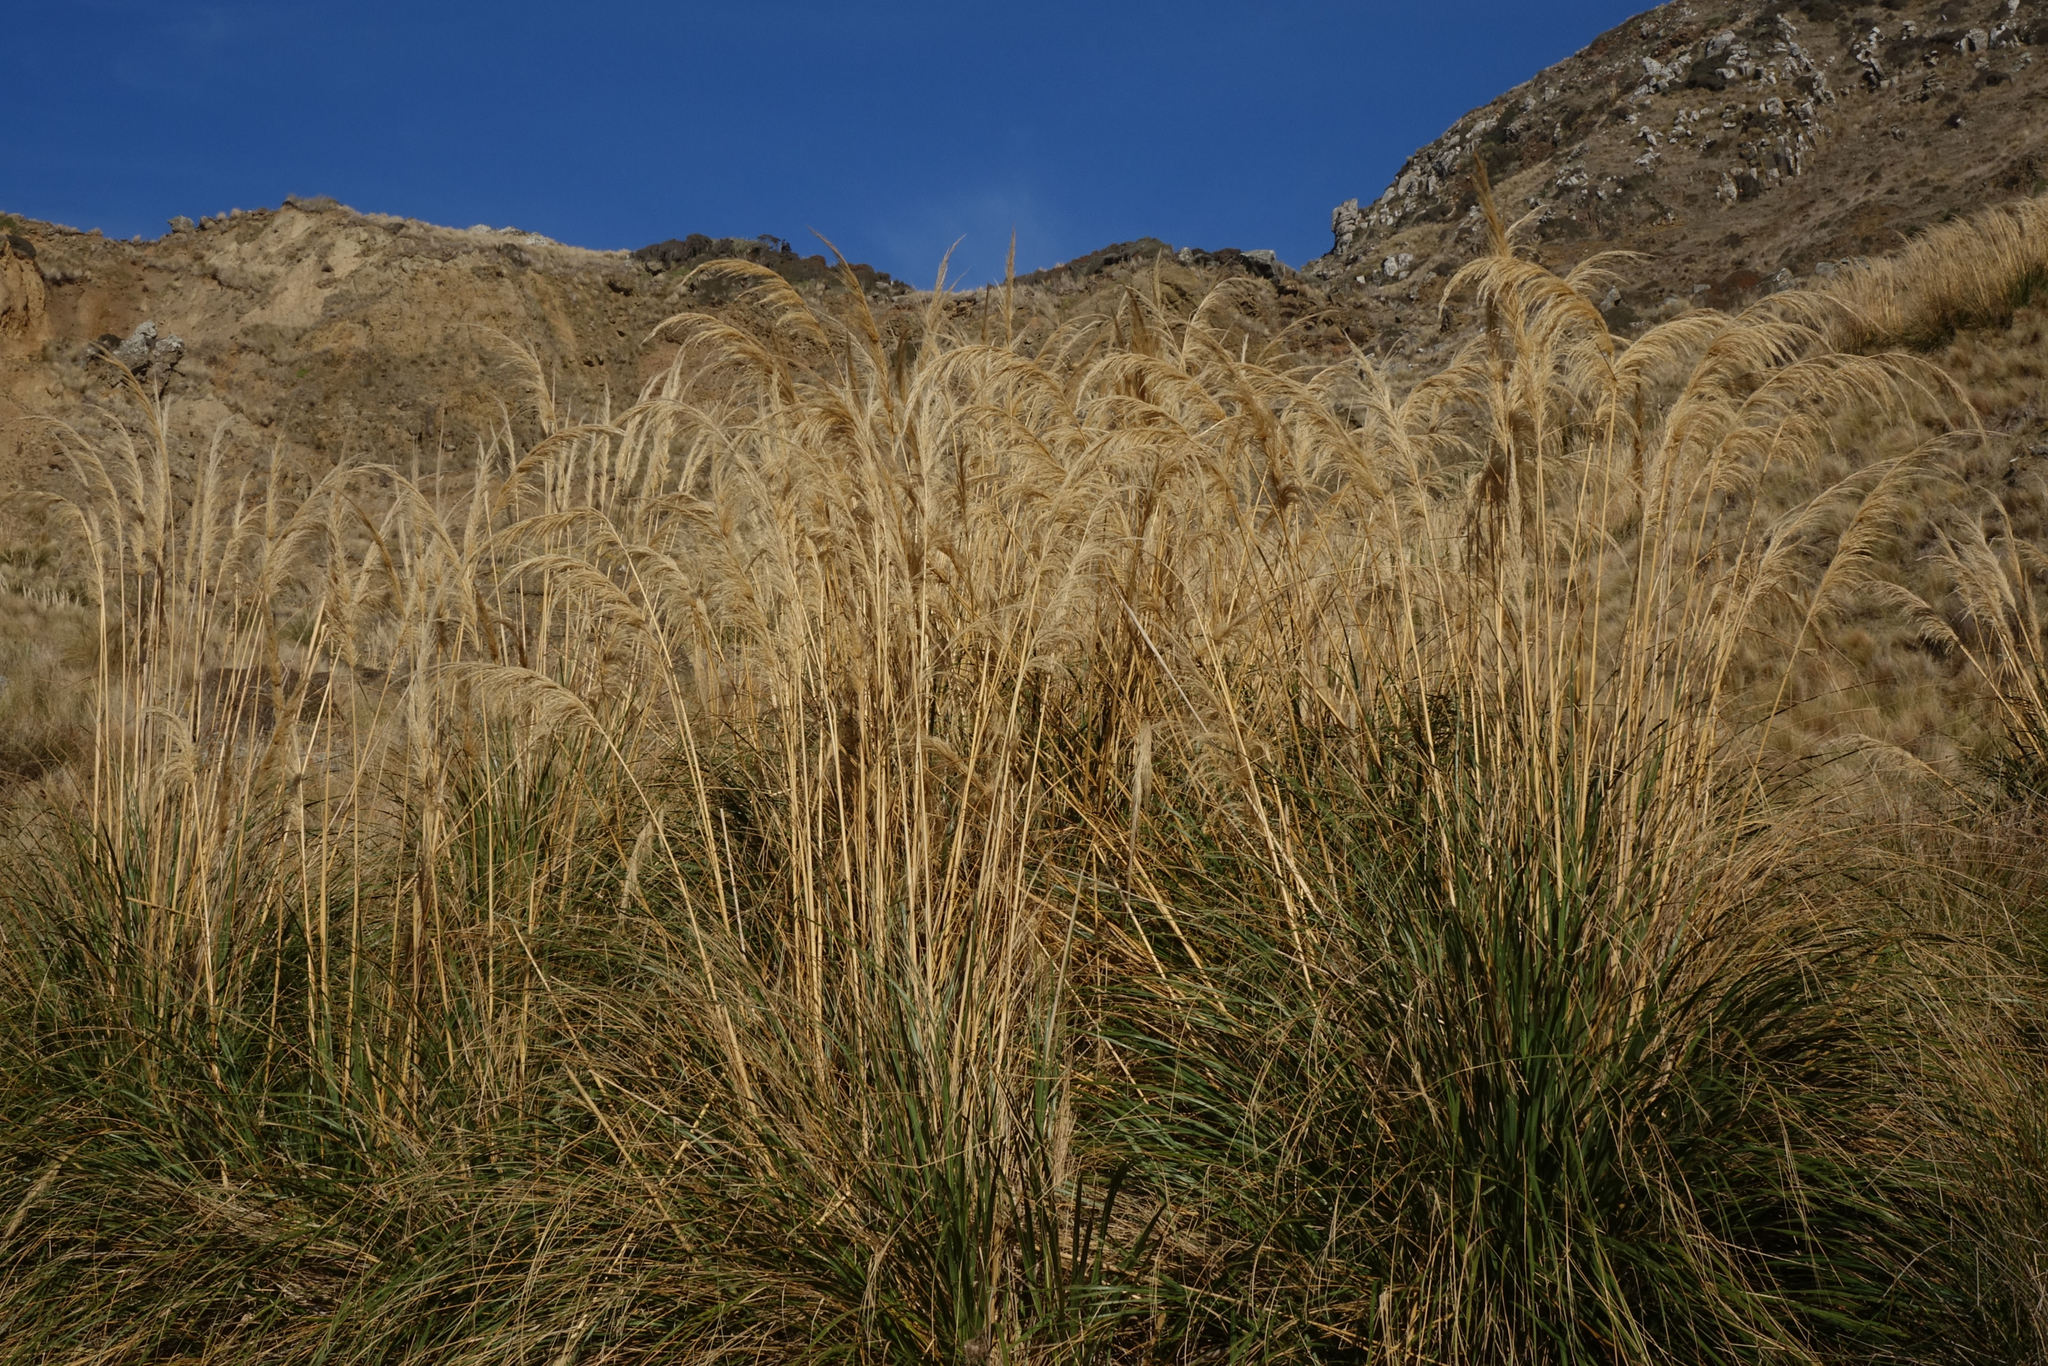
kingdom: Plantae
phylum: Tracheophyta
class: Liliopsida
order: Poales
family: Poaceae
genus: Austroderia
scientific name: Austroderia richardii
